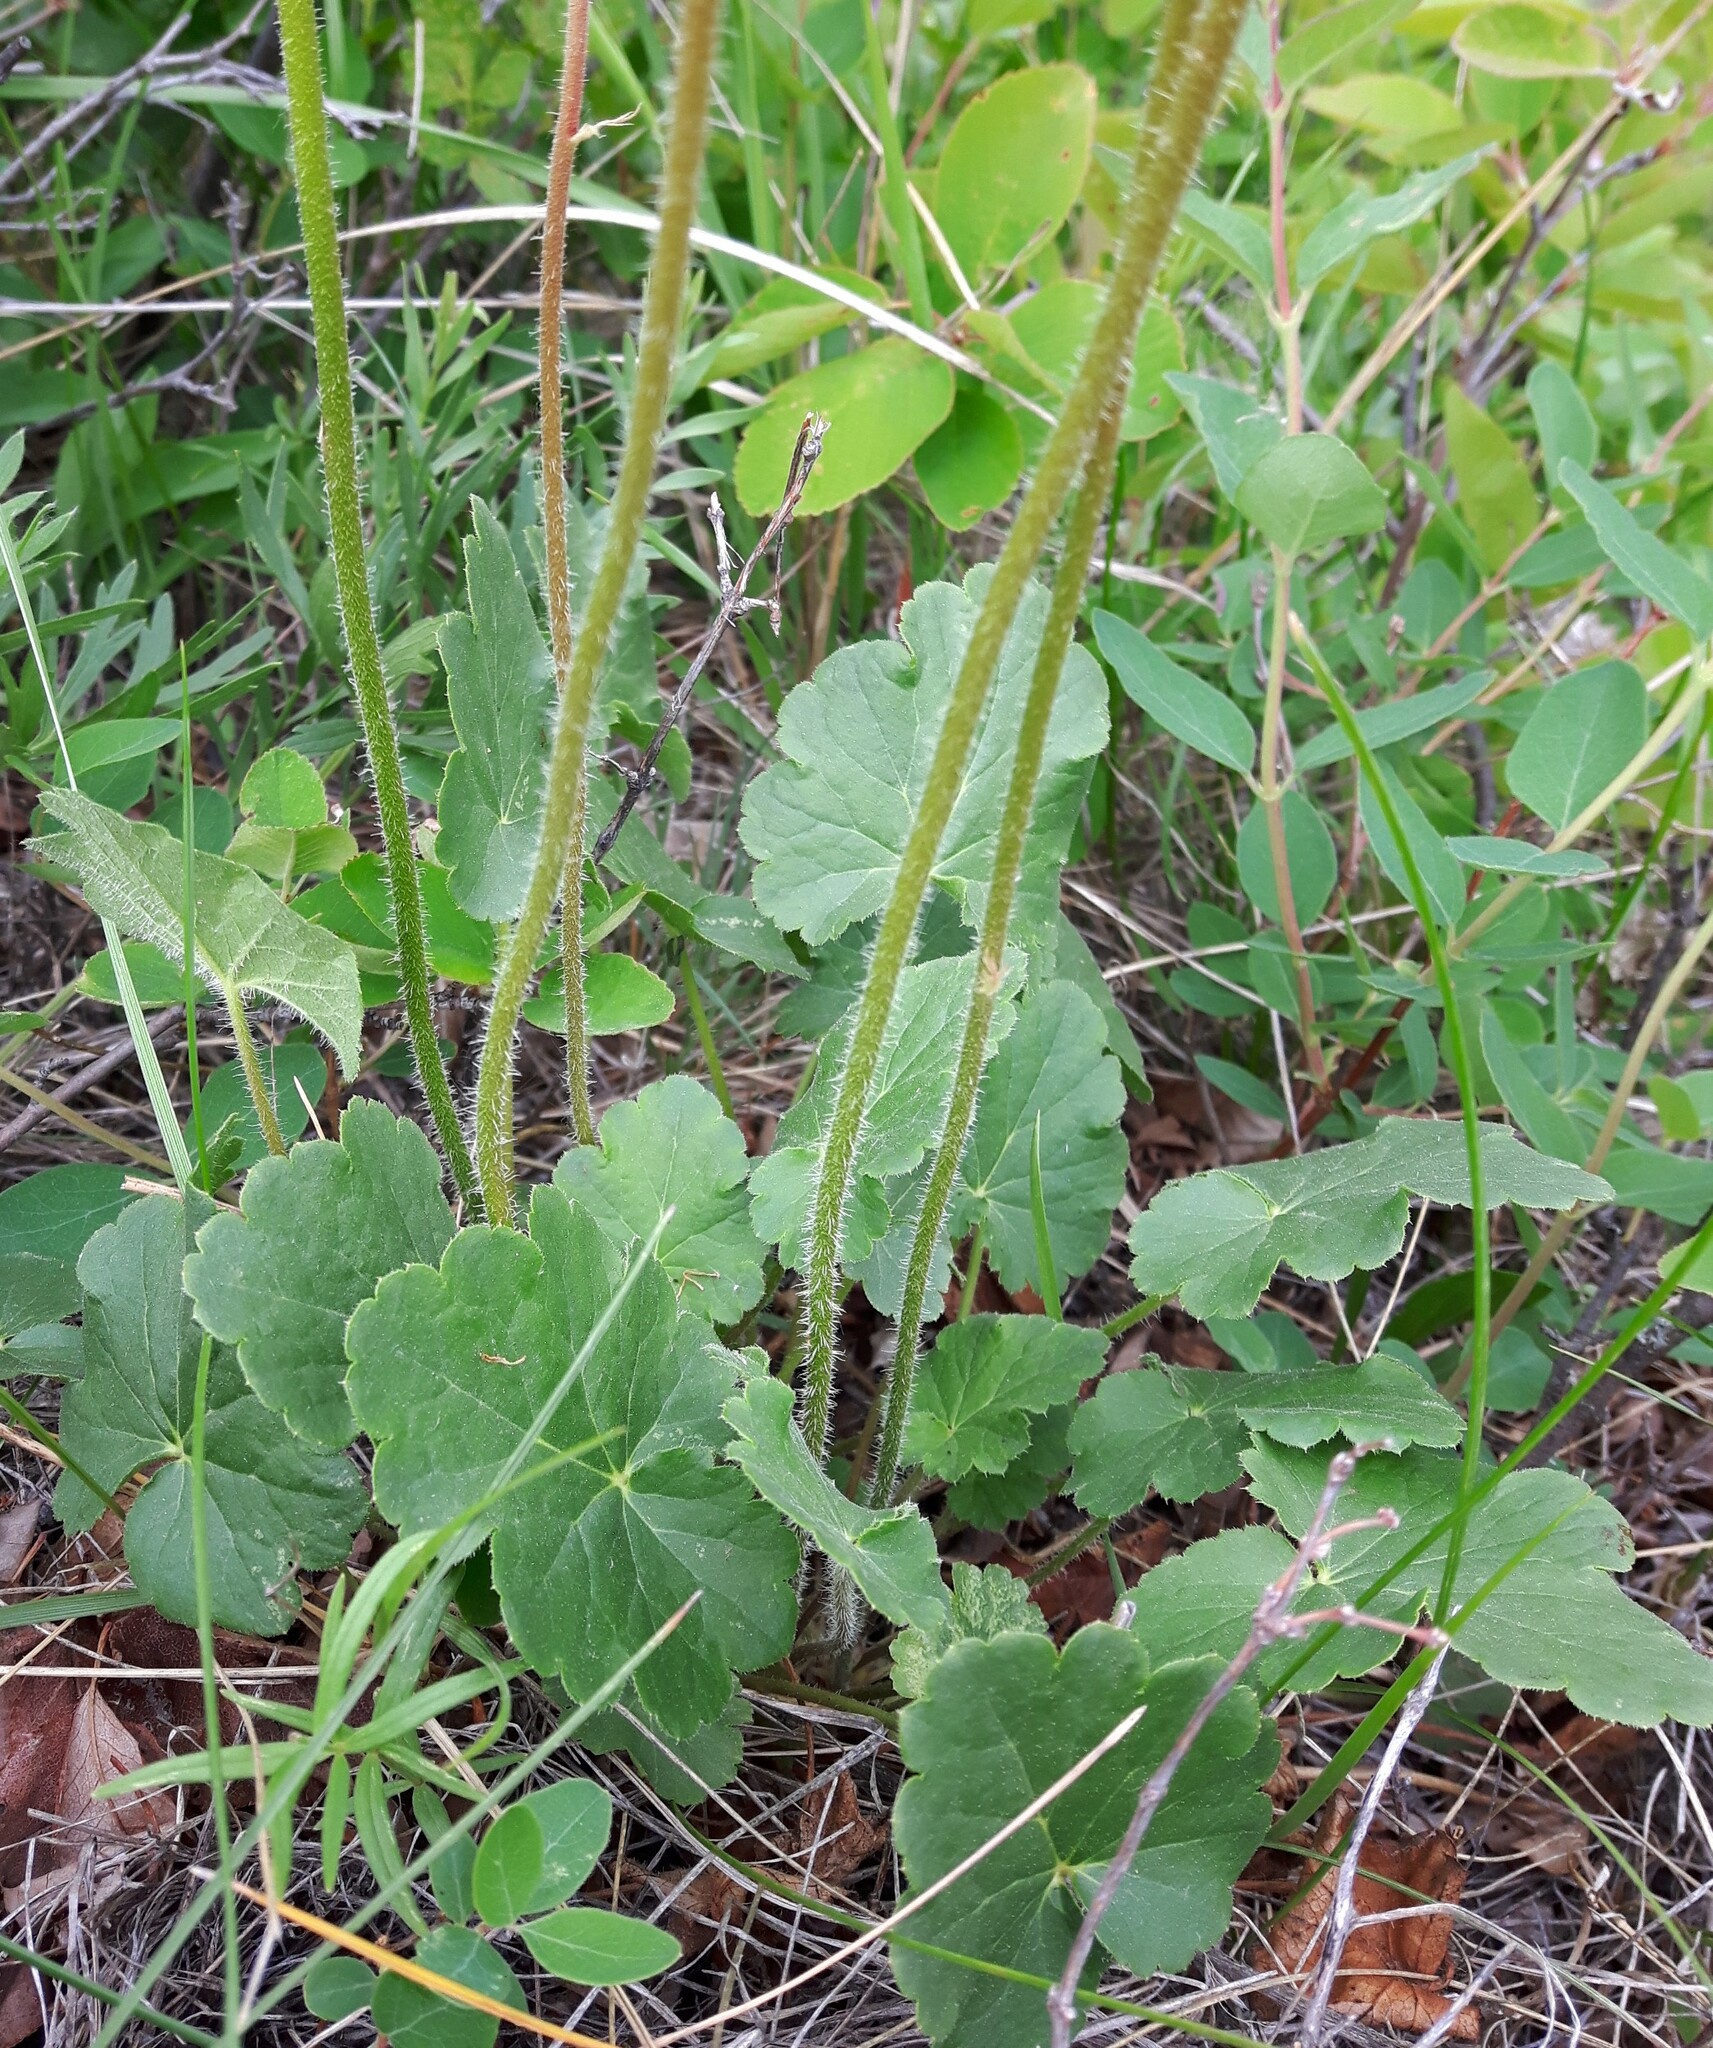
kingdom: Plantae
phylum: Tracheophyta
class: Magnoliopsida
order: Saxifragales
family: Saxifragaceae
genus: Heuchera
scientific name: Heuchera richardsonii
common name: Richardson's alumroot
